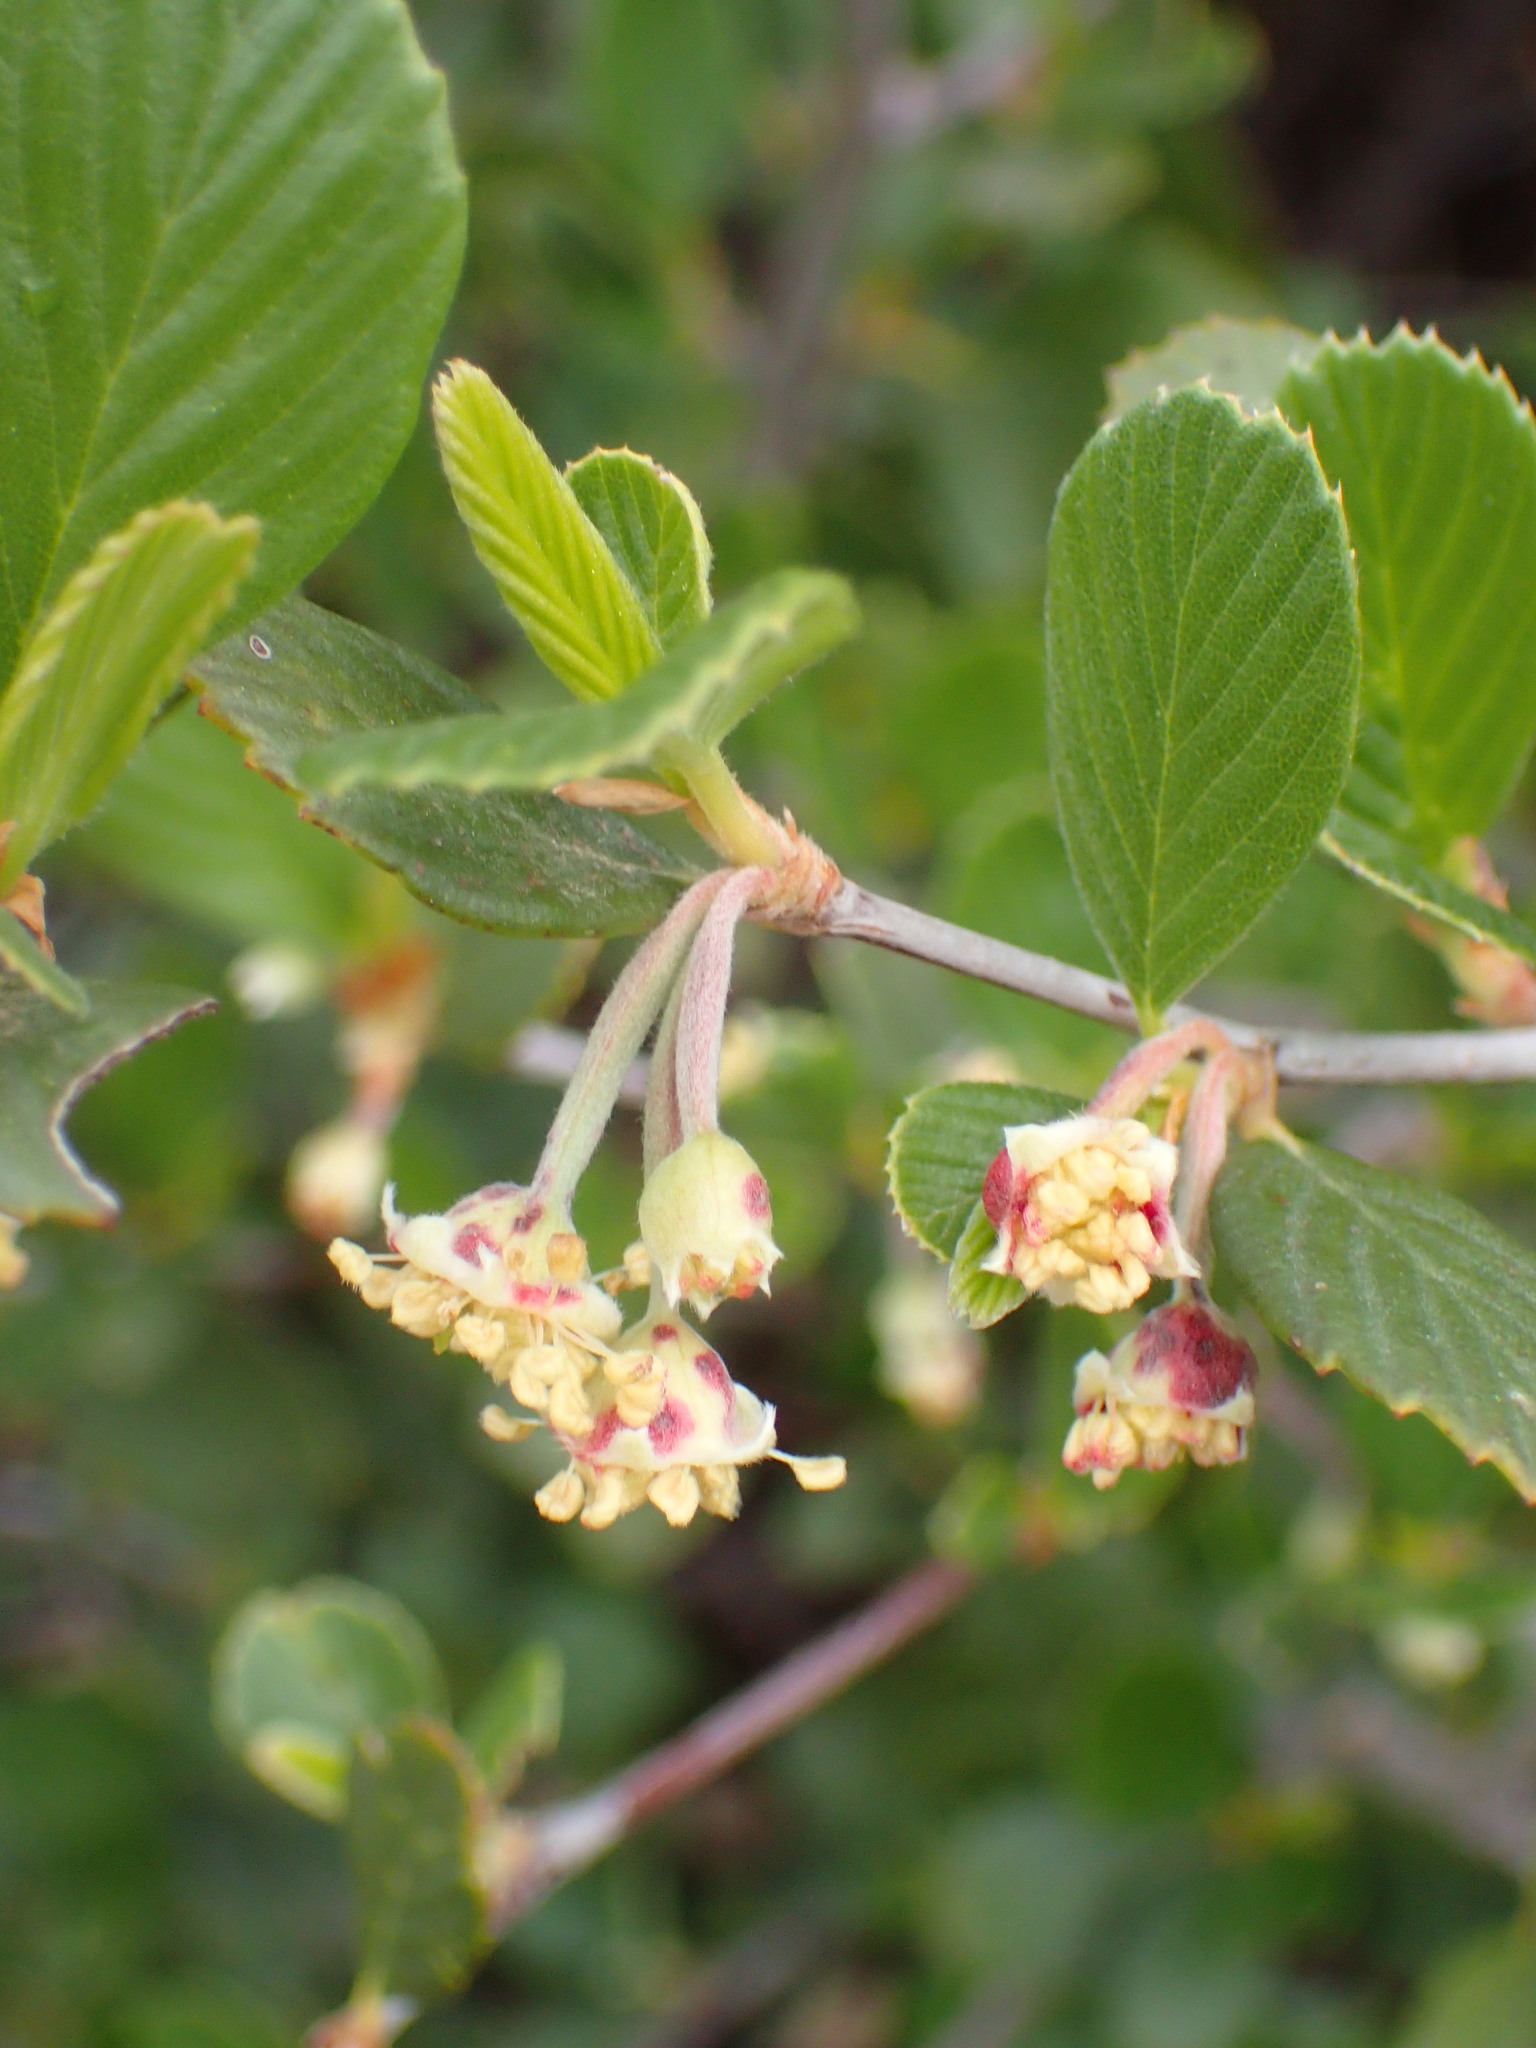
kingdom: Plantae
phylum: Tracheophyta
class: Magnoliopsida
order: Rosales
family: Rosaceae
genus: Cercocarpus
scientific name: Cercocarpus betuloides
